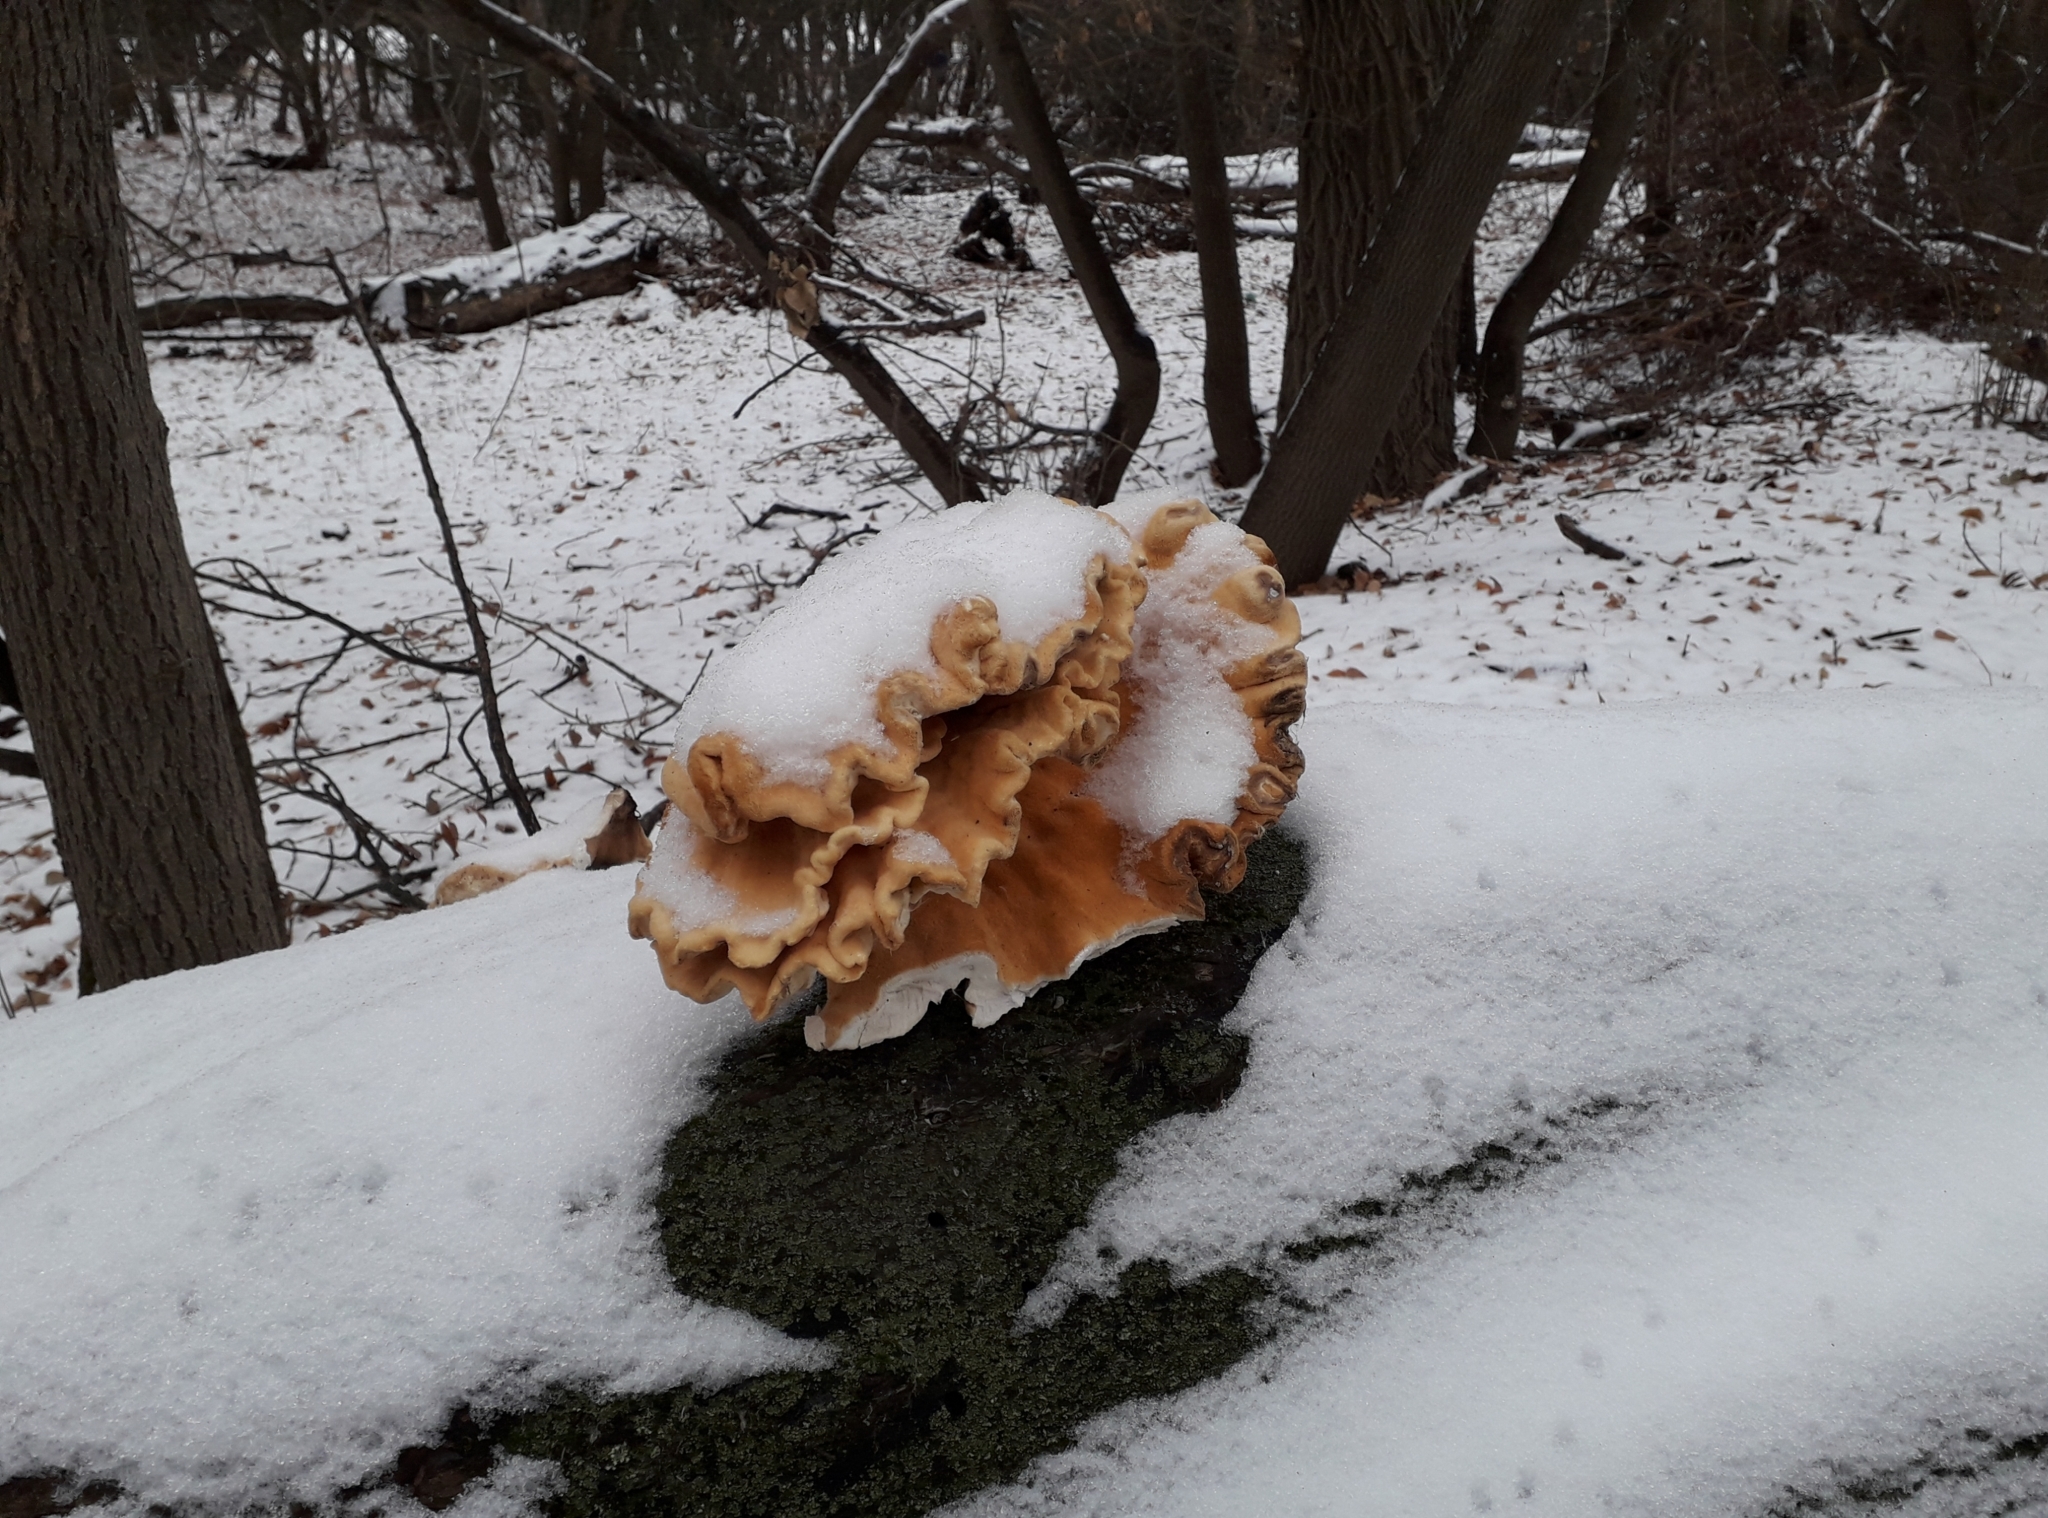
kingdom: Fungi
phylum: Basidiomycota
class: Agaricomycetes
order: Polyporales
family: Laetiporaceae
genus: Laetiporus
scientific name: Laetiporus sulphureus
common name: Chicken of the woods
